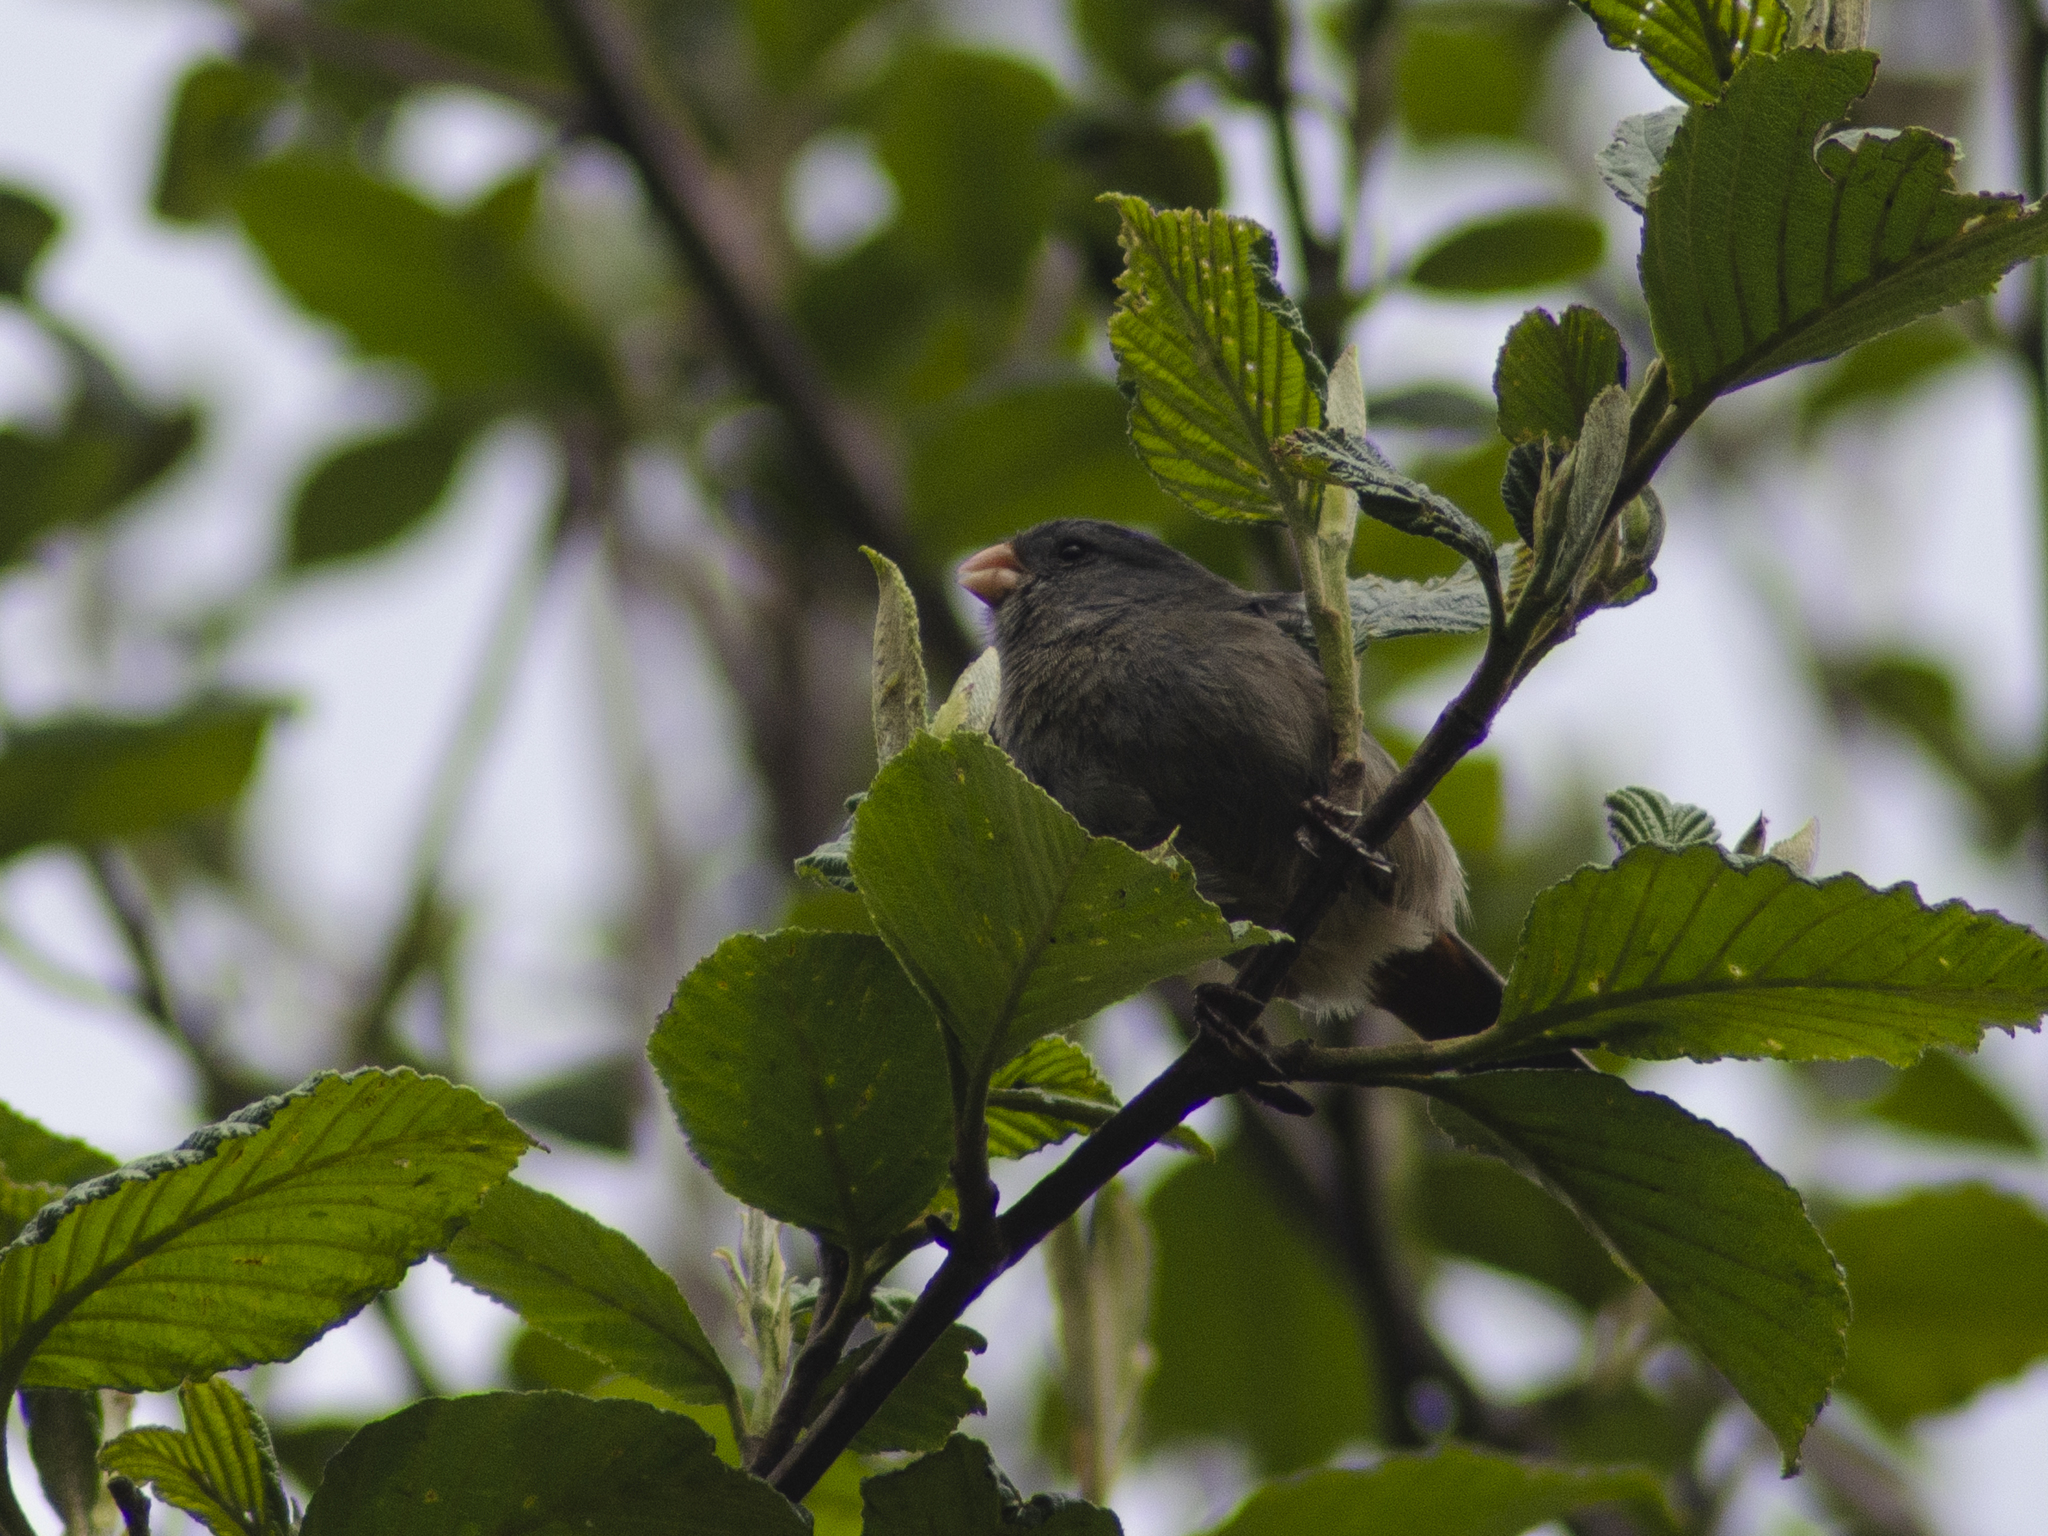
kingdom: Animalia
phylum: Chordata
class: Aves
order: Passeriformes
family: Thraupidae
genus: Catamenia
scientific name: Catamenia inornata
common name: Plain-colored seedeater
